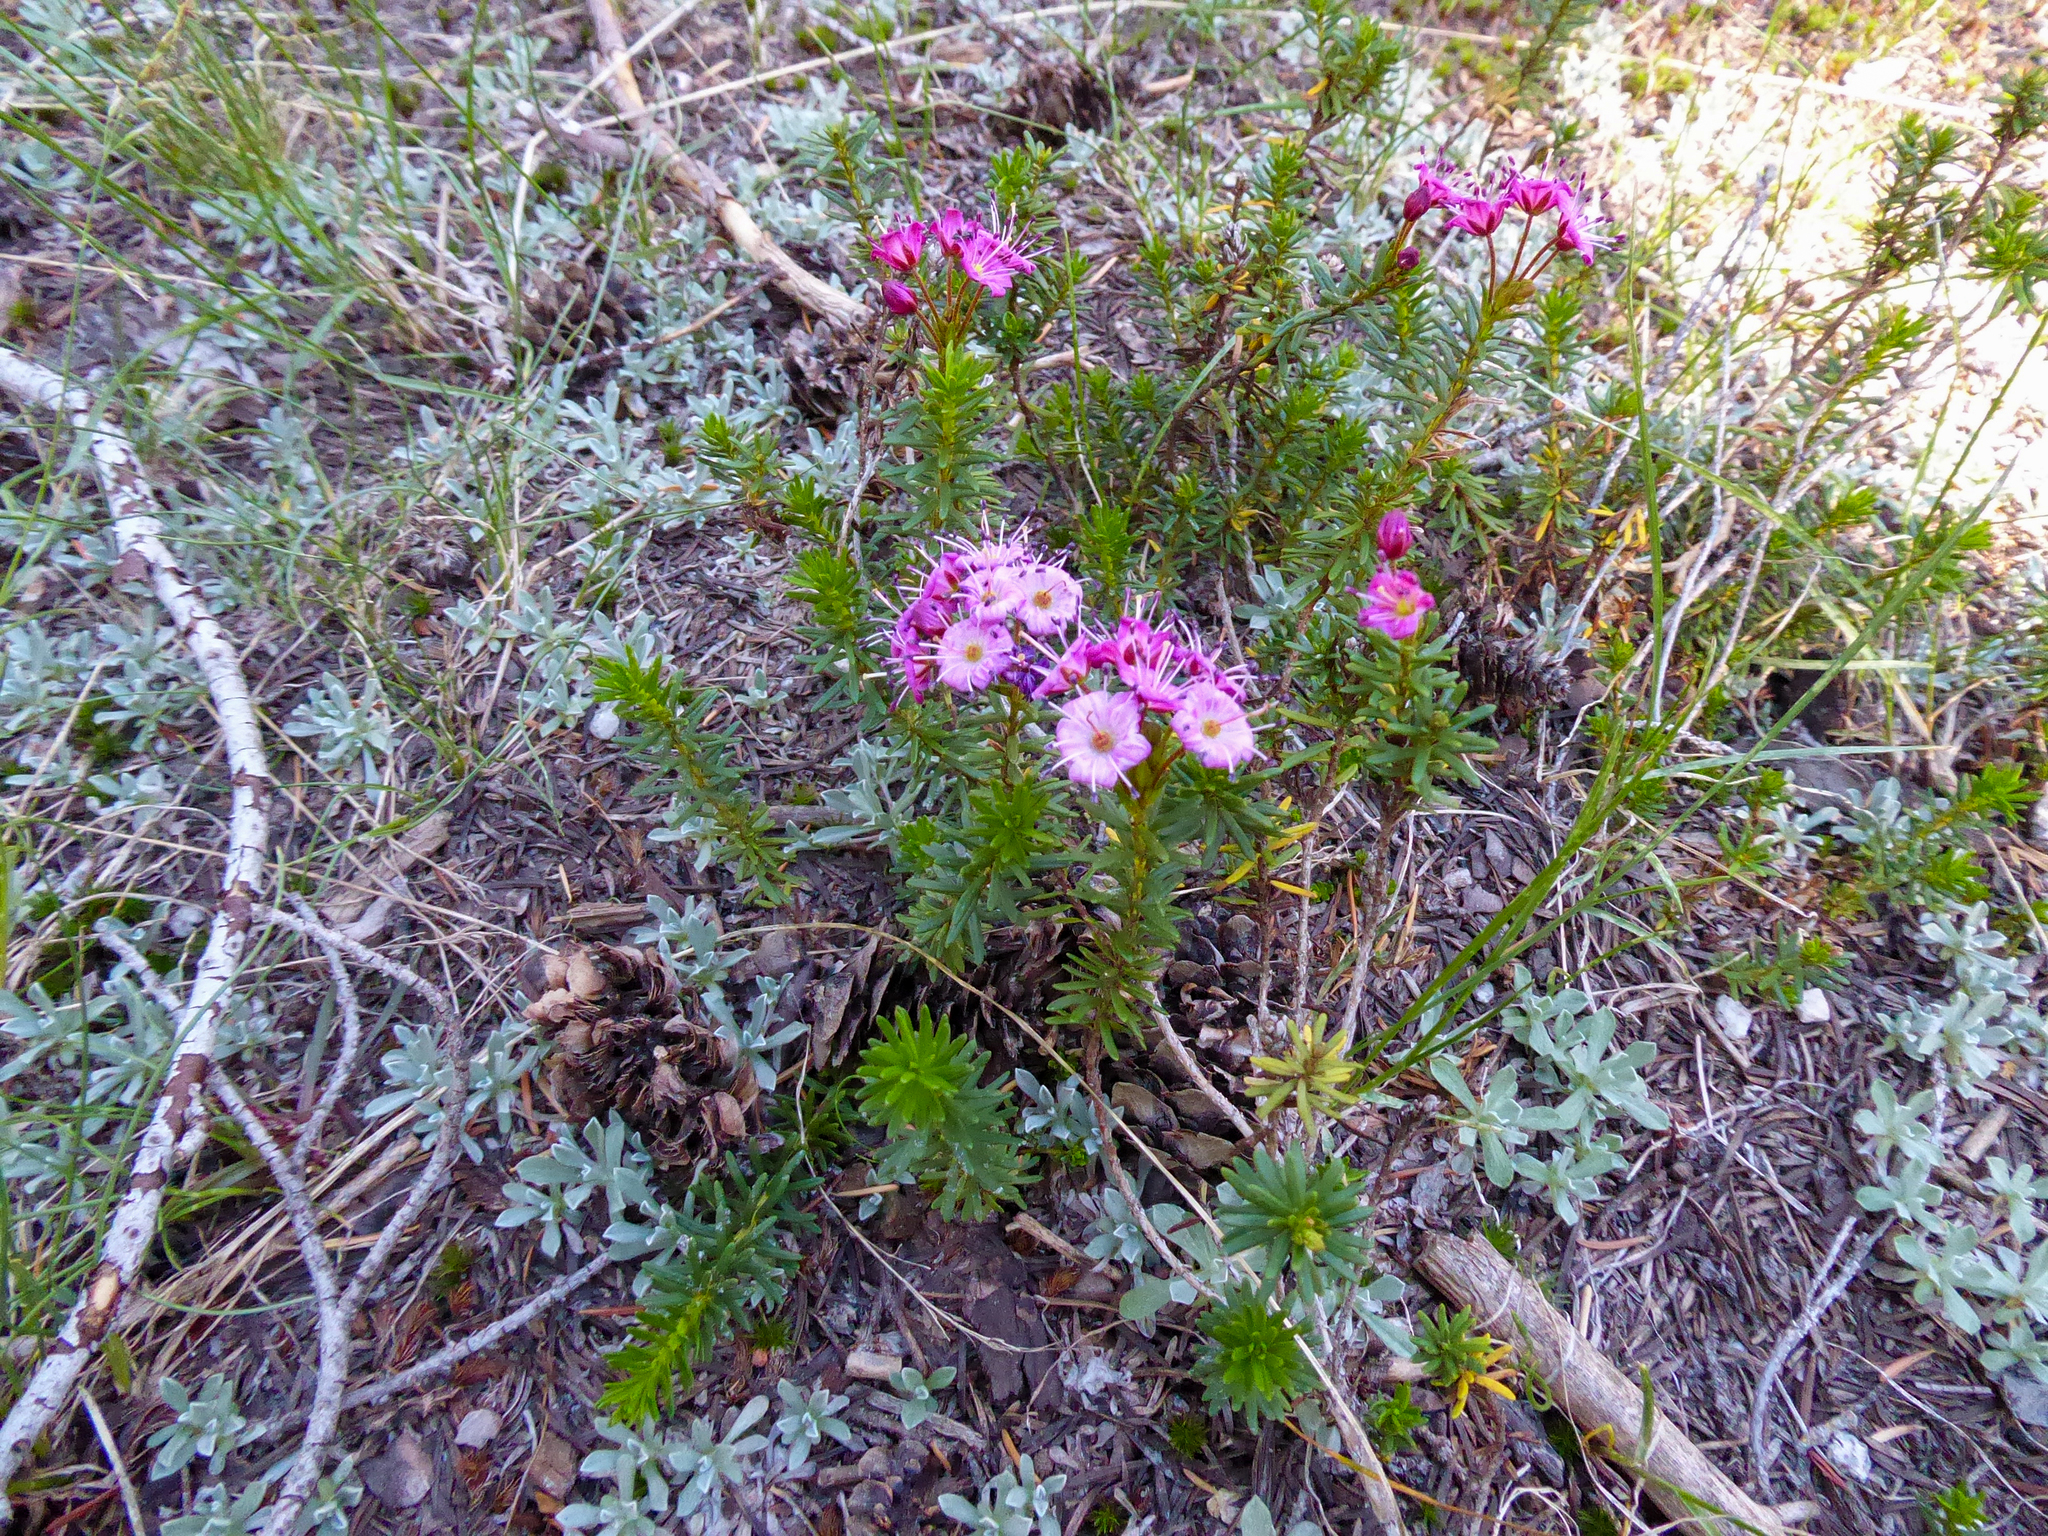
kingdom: Plantae
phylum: Tracheophyta
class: Magnoliopsida
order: Ericales
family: Ericaceae
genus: Phyllodoce
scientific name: Phyllodoce breweri
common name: Brewer's mountain-heather
